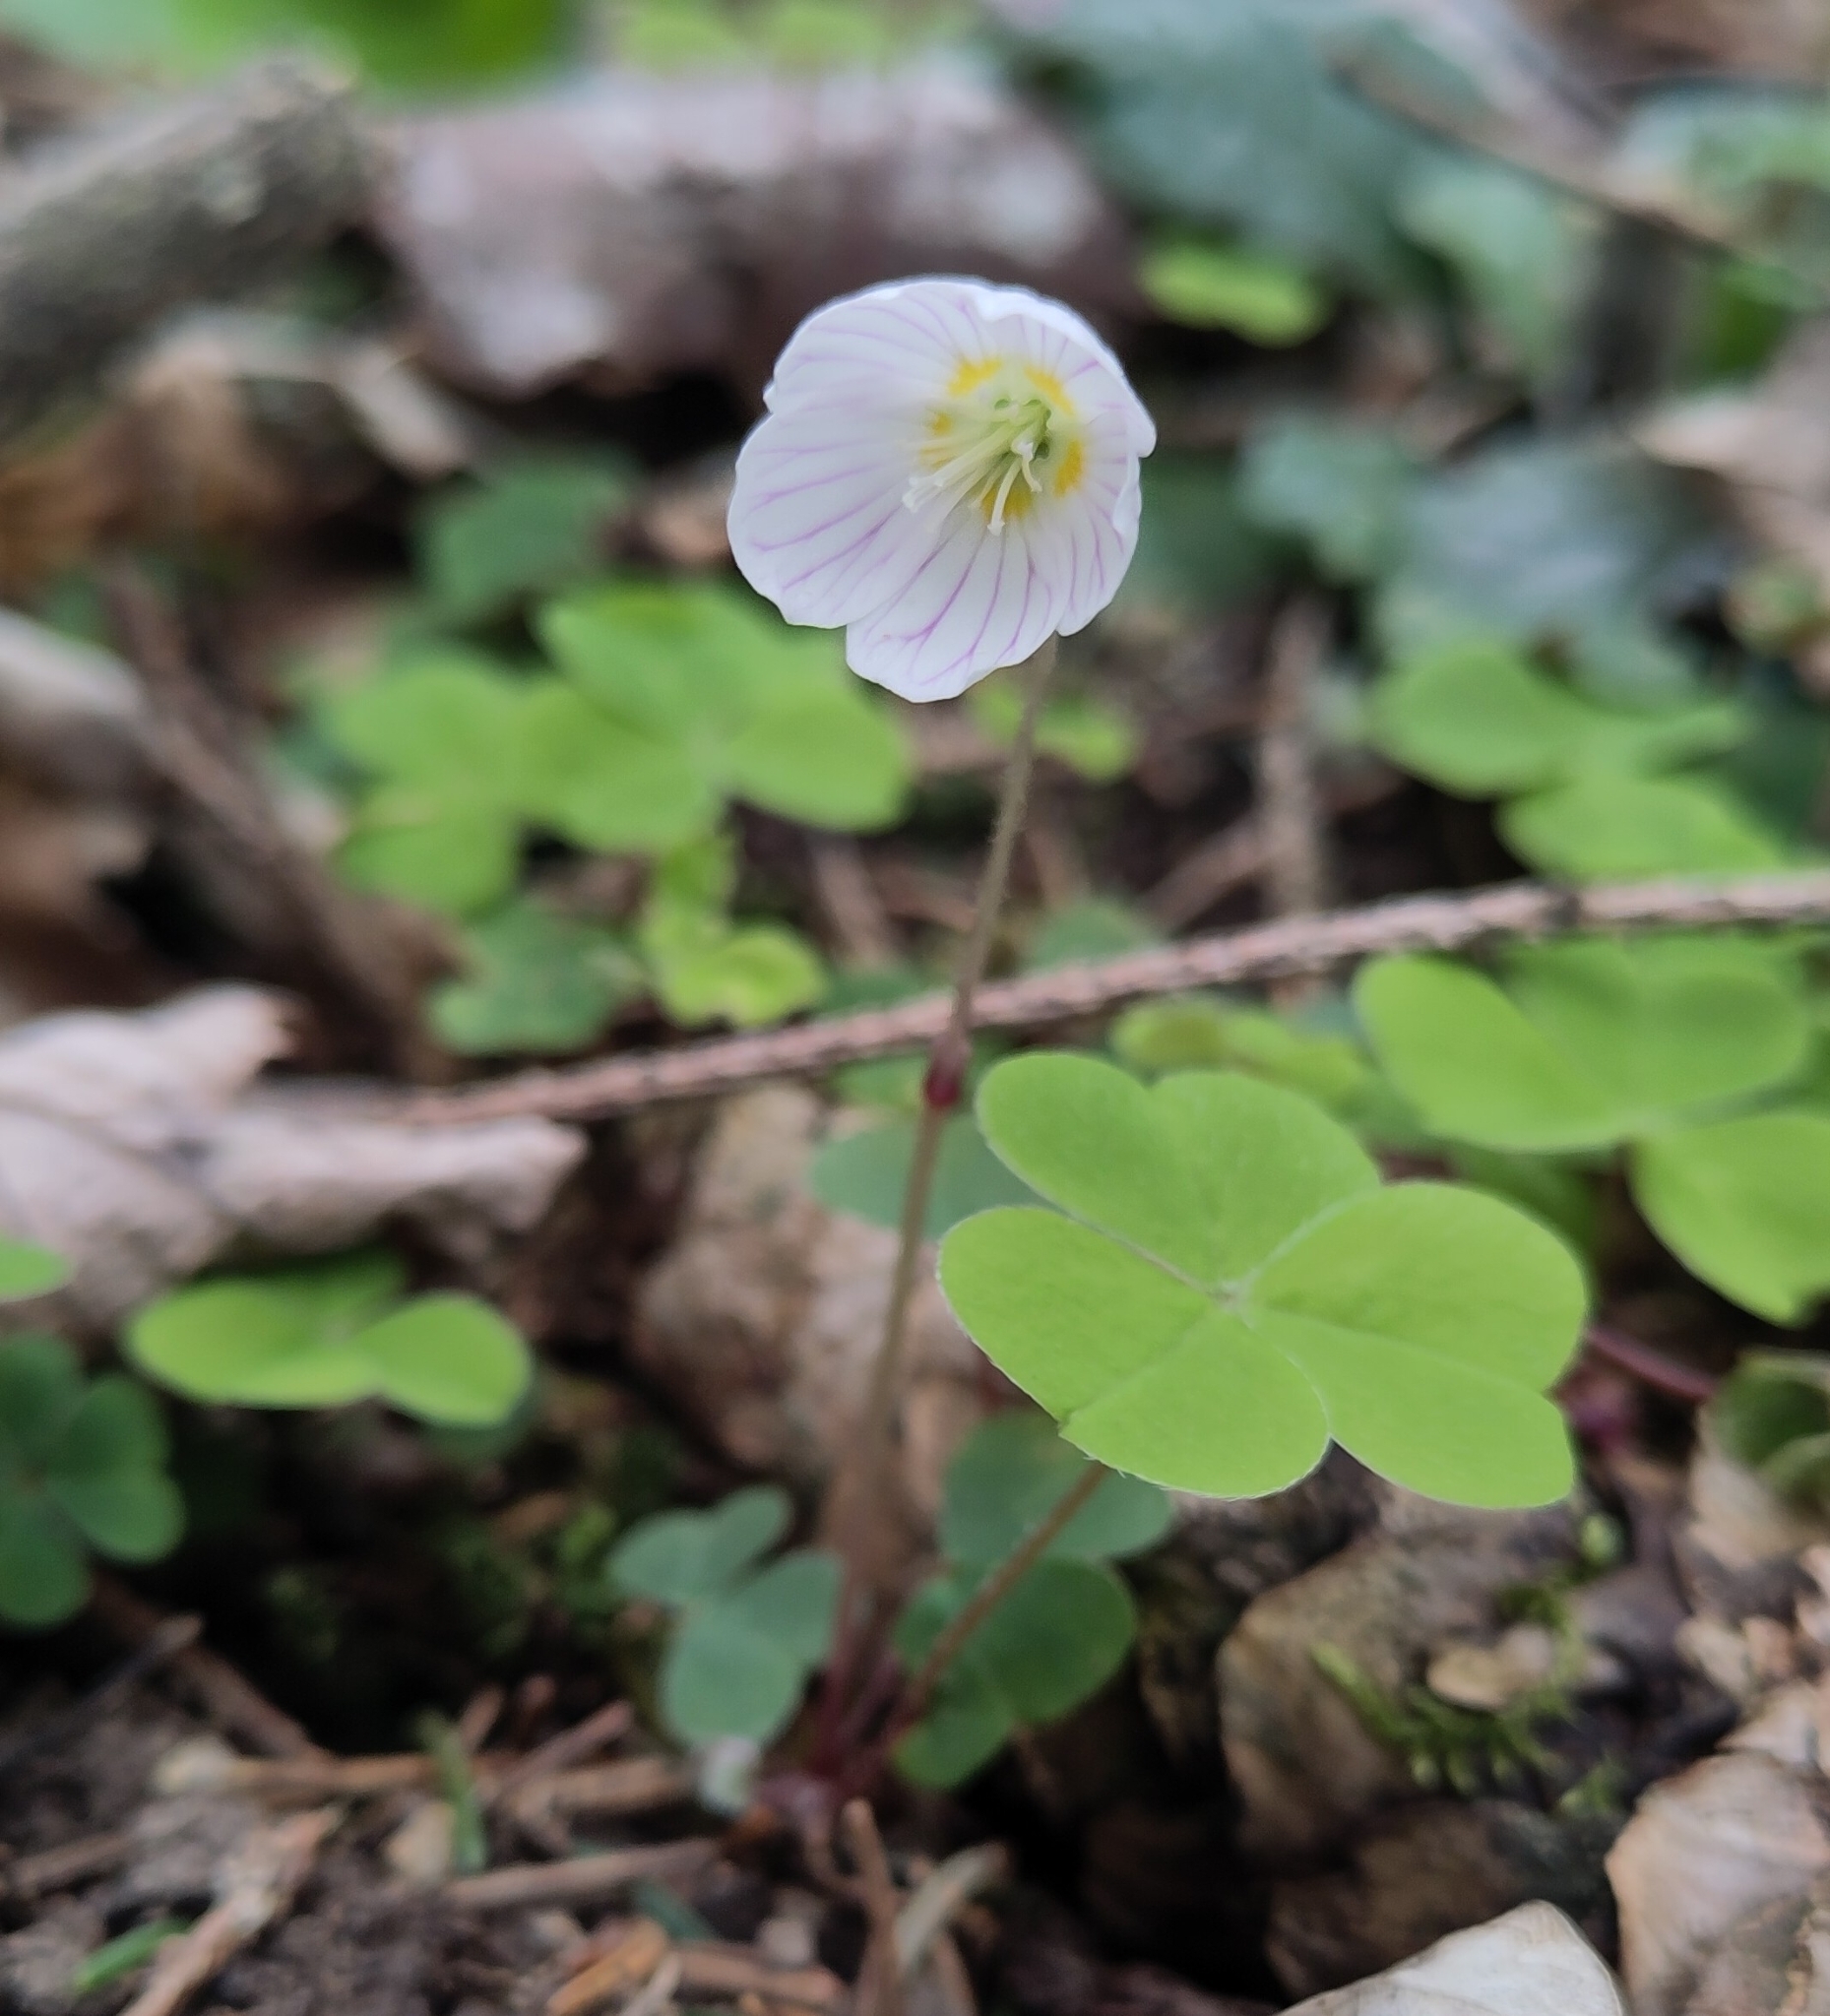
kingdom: Plantae
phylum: Tracheophyta
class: Magnoliopsida
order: Oxalidales
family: Oxalidaceae
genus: Oxalis
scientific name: Oxalis acetosella
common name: Wood-sorrel
